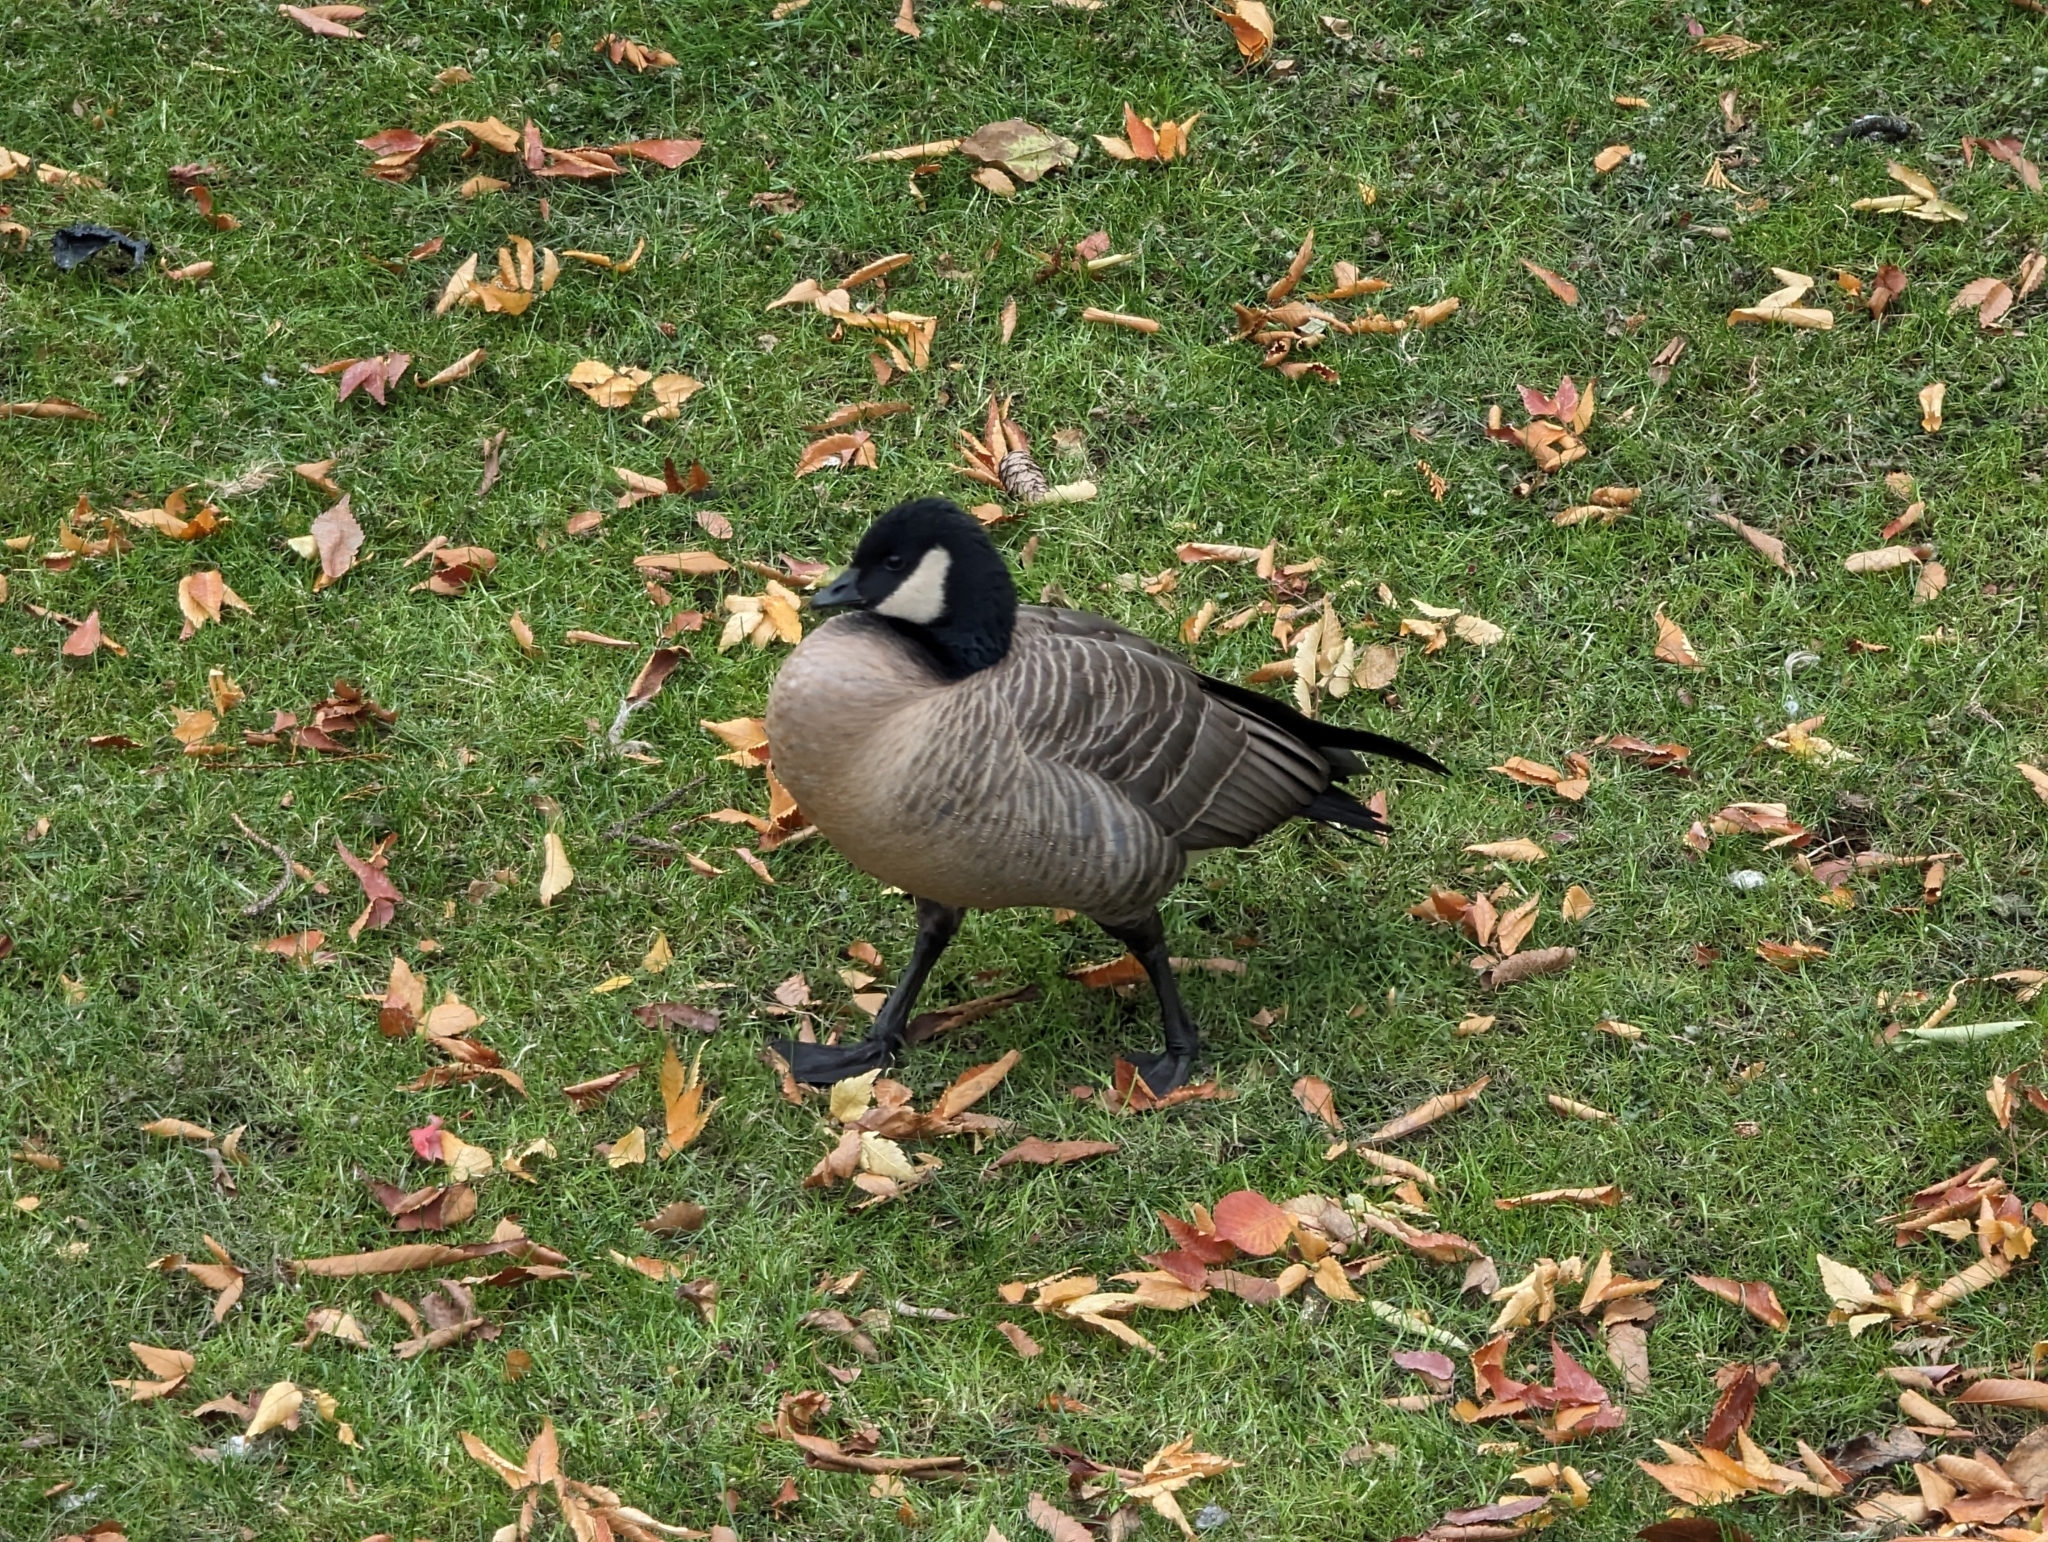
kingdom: Animalia
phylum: Chordata
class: Aves
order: Anseriformes
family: Anatidae
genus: Branta
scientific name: Branta hutchinsii
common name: Cackling goose
